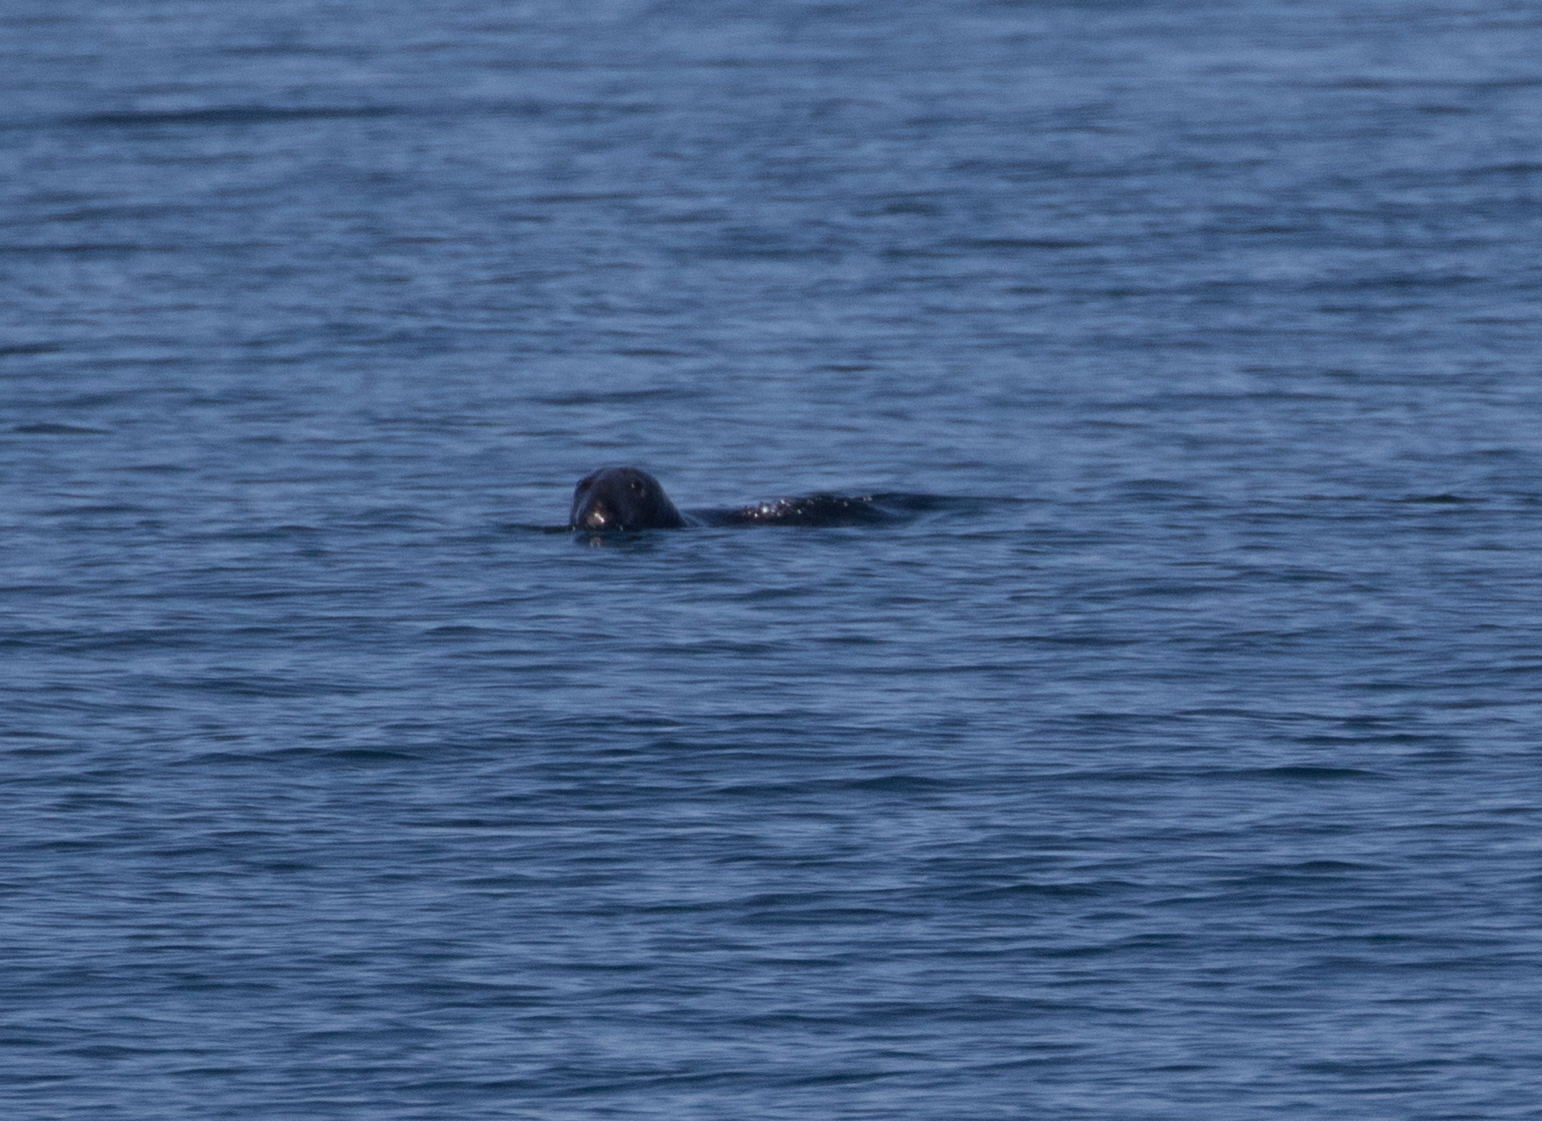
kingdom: Animalia
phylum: Chordata
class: Mammalia
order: Carnivora
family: Phocidae
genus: Halichoerus
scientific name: Halichoerus grypus
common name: Grey seal
